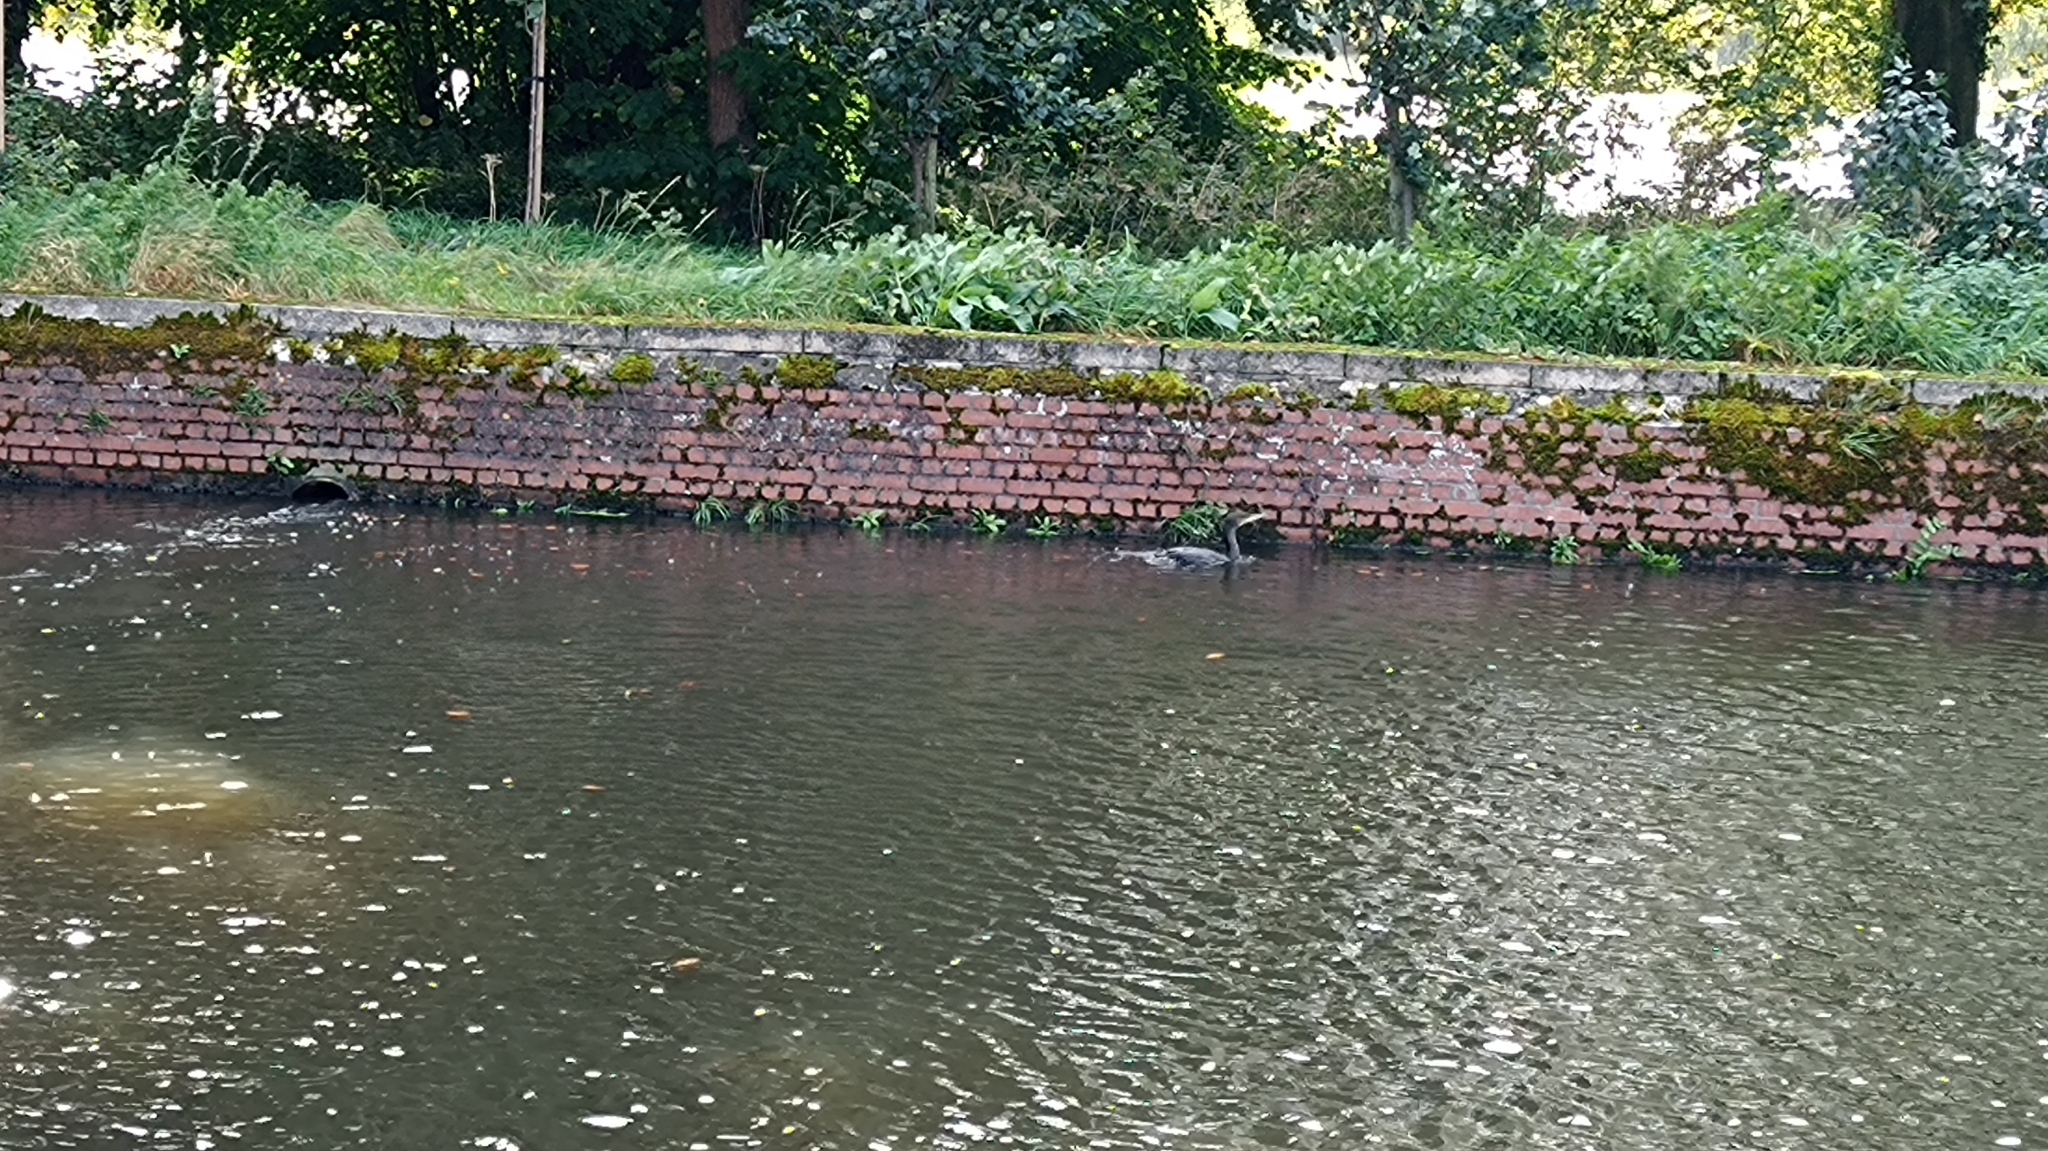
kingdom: Animalia
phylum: Chordata
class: Aves
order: Suliformes
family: Phalacrocoracidae
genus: Phalacrocorax
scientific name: Phalacrocorax carbo
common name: Great cormorant
